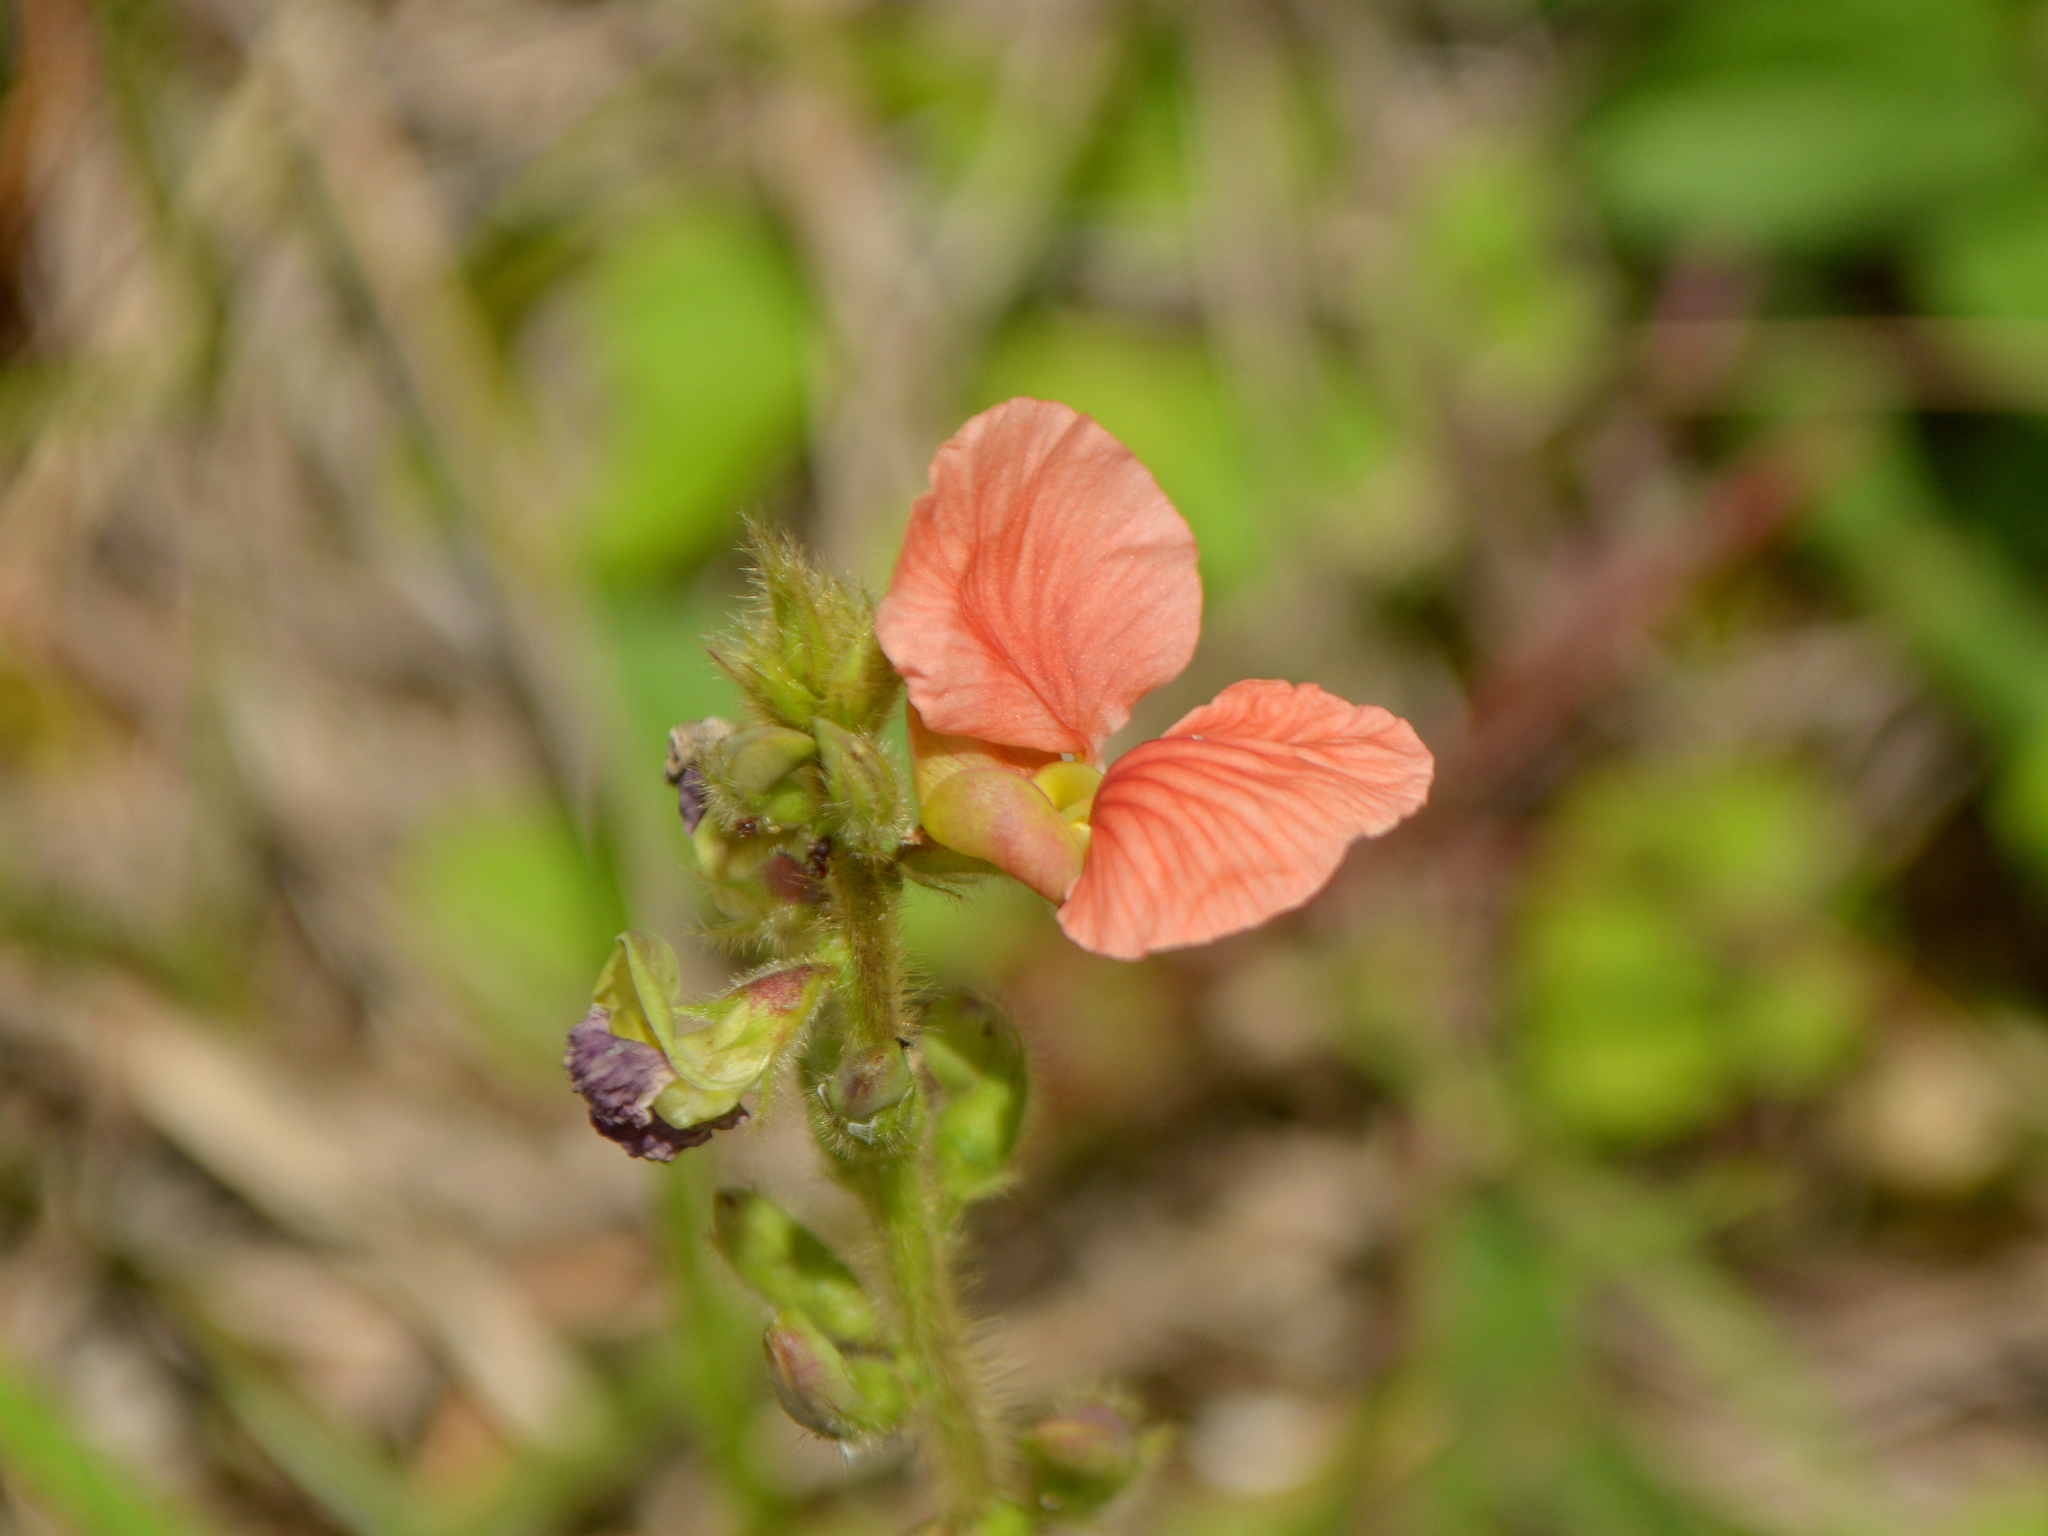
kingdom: Plantae
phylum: Tracheophyta
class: Magnoliopsida
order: Fabales
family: Fabaceae
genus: Macroptilium
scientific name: Macroptilium psammodes
